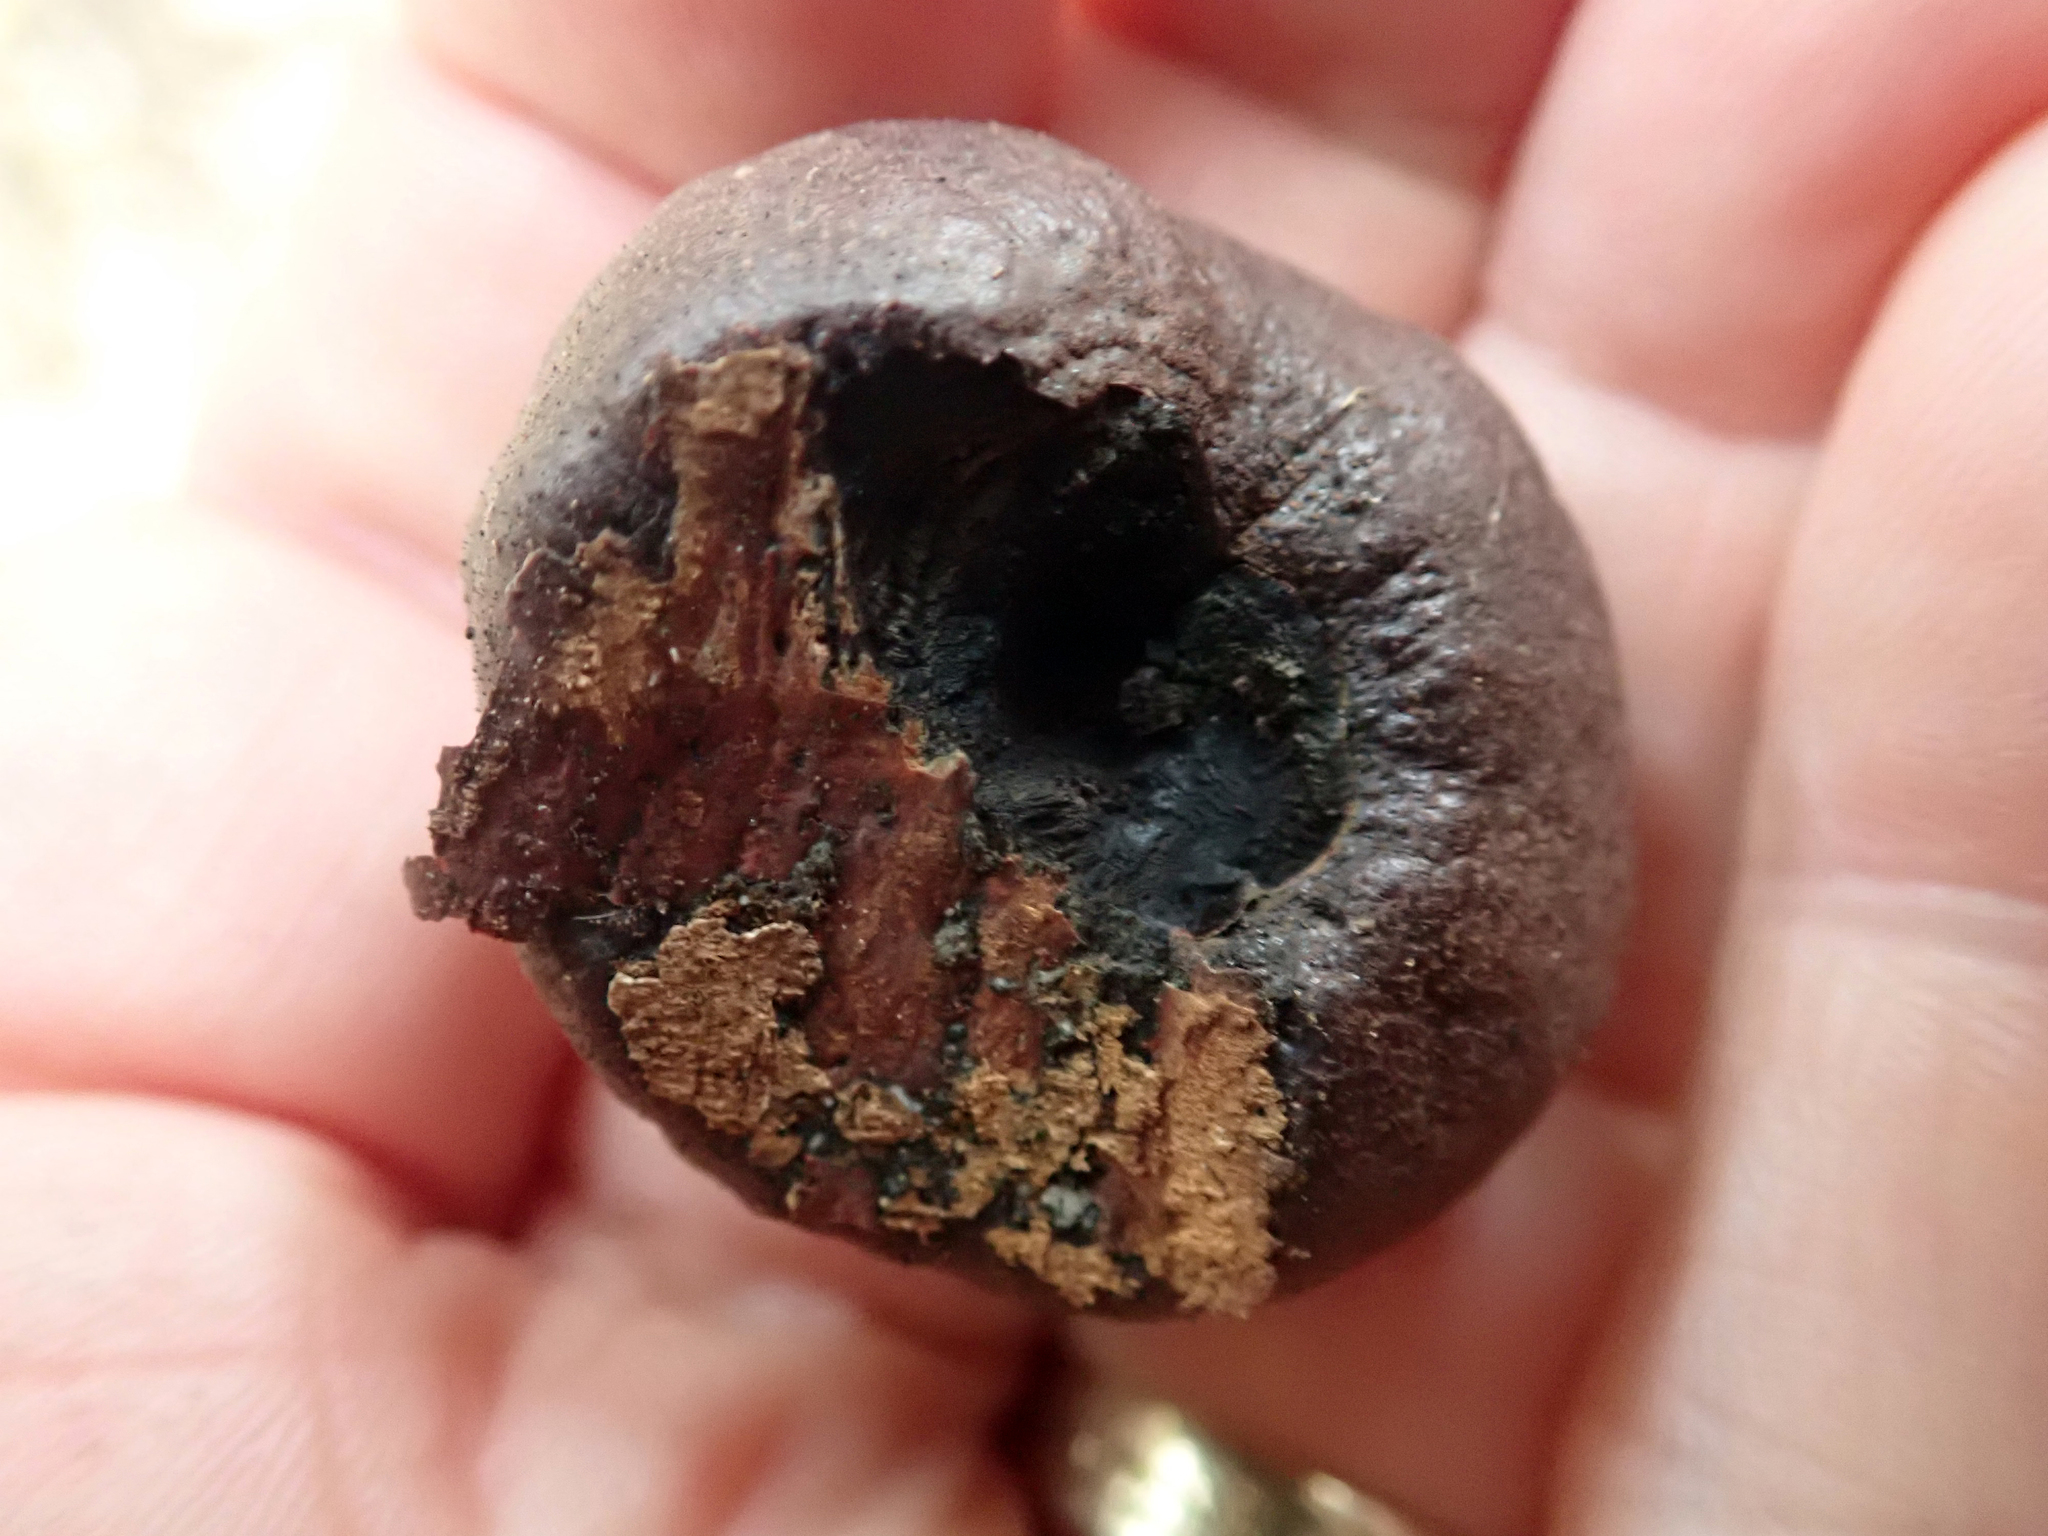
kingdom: Fungi
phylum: Ascomycota
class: Sordariomycetes
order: Xylariales
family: Hypoxylaceae
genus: Daldinia
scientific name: Daldinia
